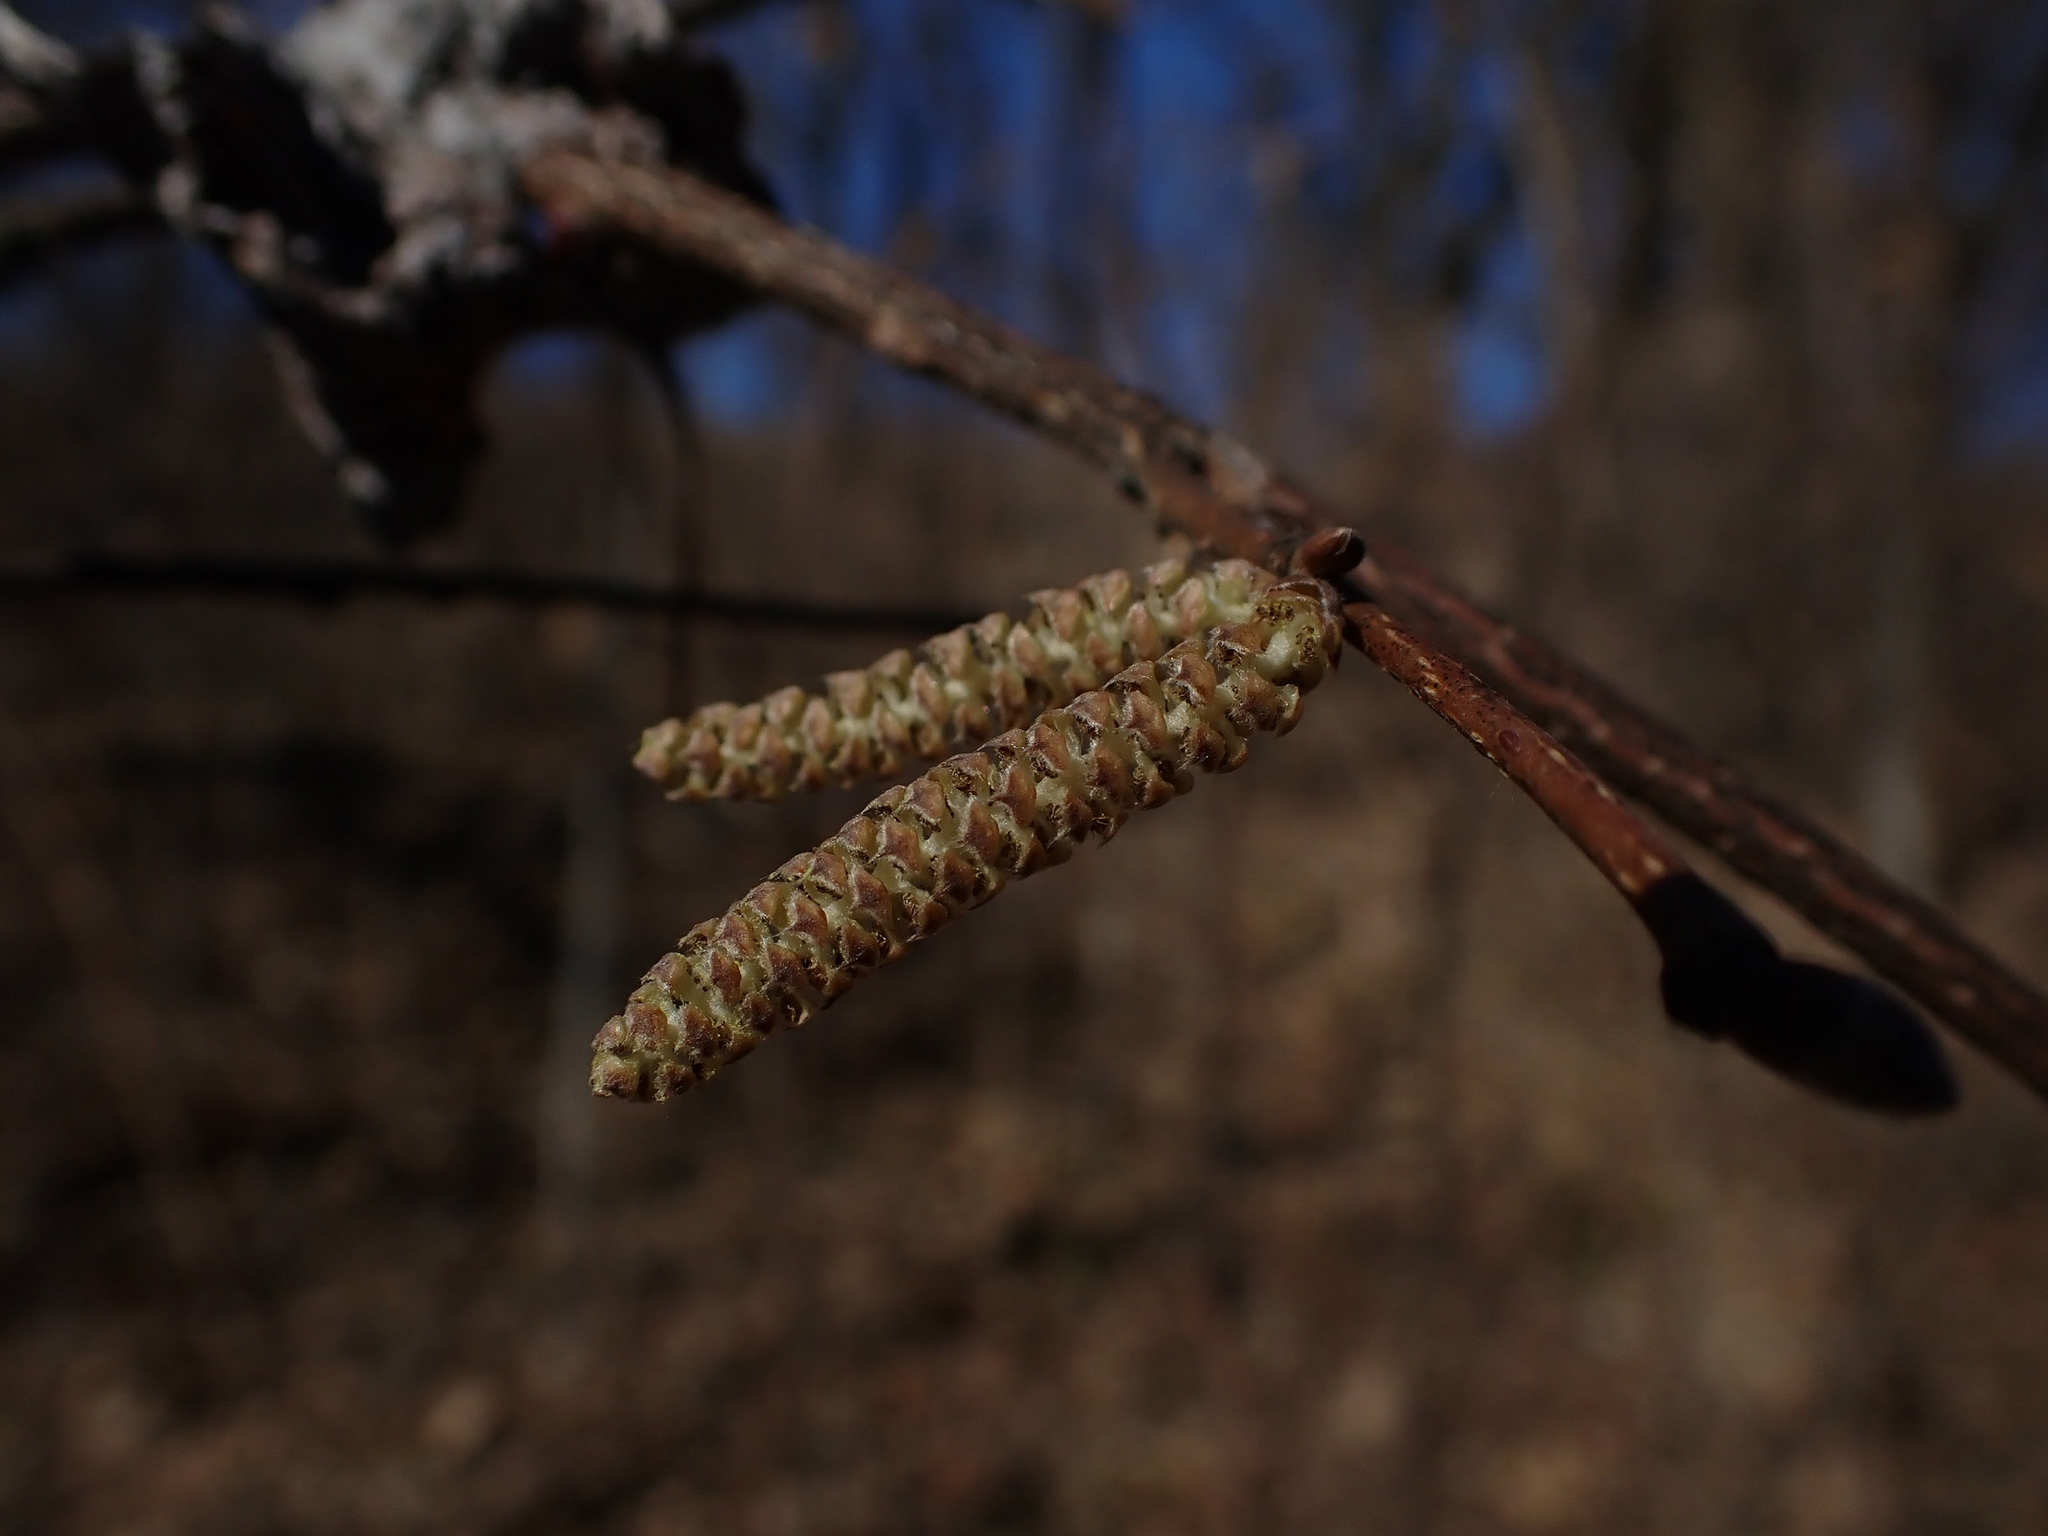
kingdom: Plantae
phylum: Tracheophyta
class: Magnoliopsida
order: Fagales
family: Betulaceae
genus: Corylus
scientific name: Corylus americana
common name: American hazel
